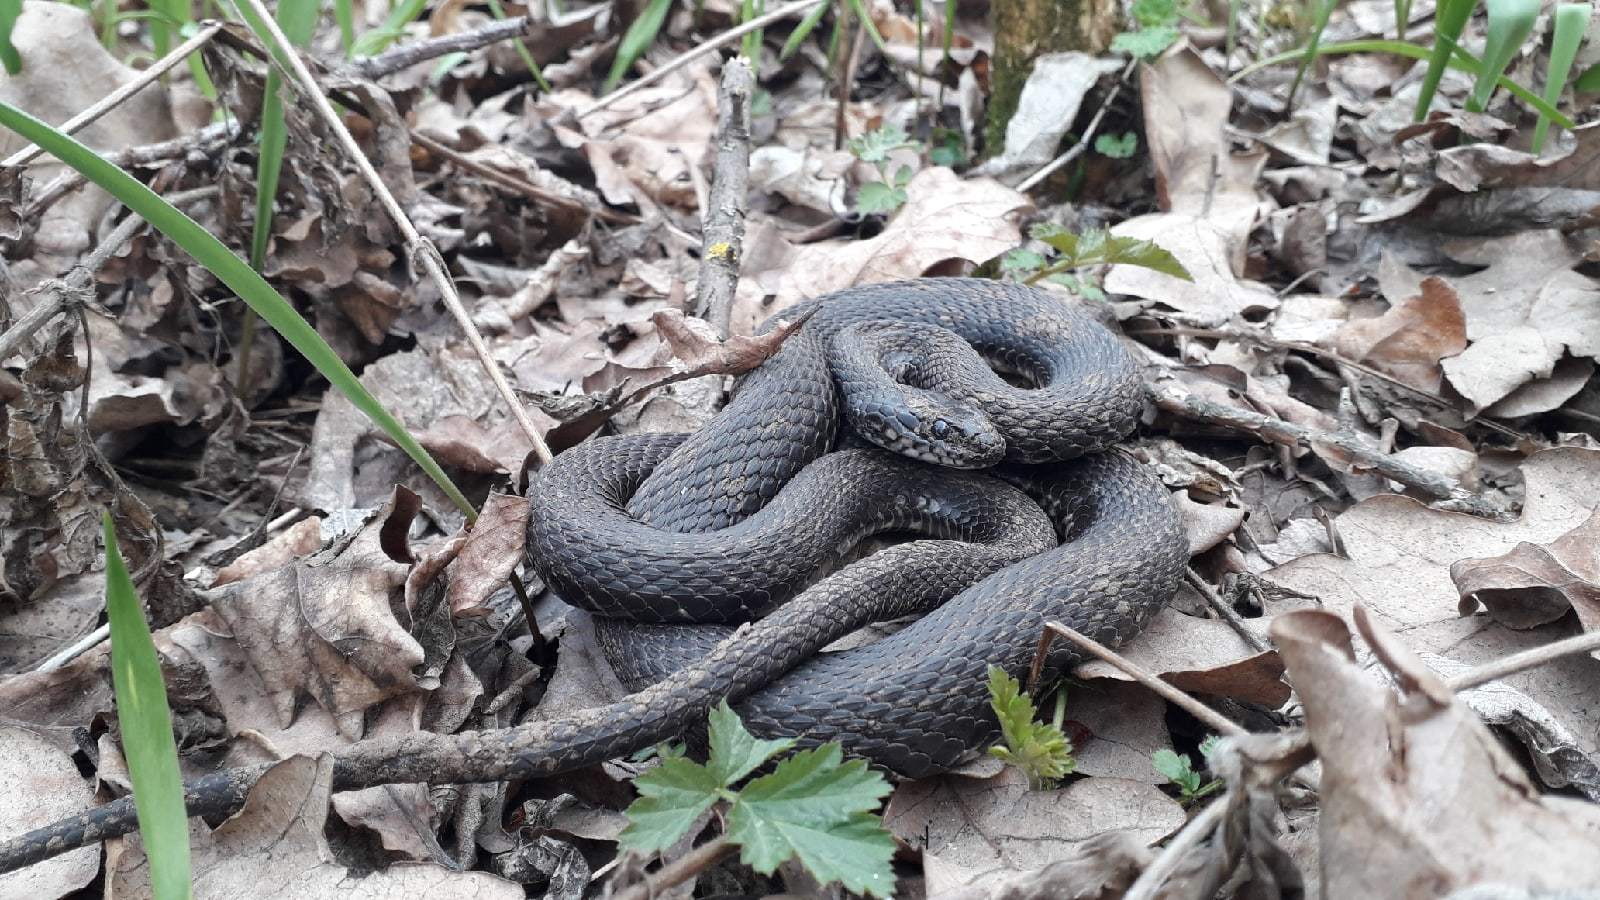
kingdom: Animalia
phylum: Chordata
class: Squamata
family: Colubridae
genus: Natrix
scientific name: Natrix tessellata
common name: Dice snake
